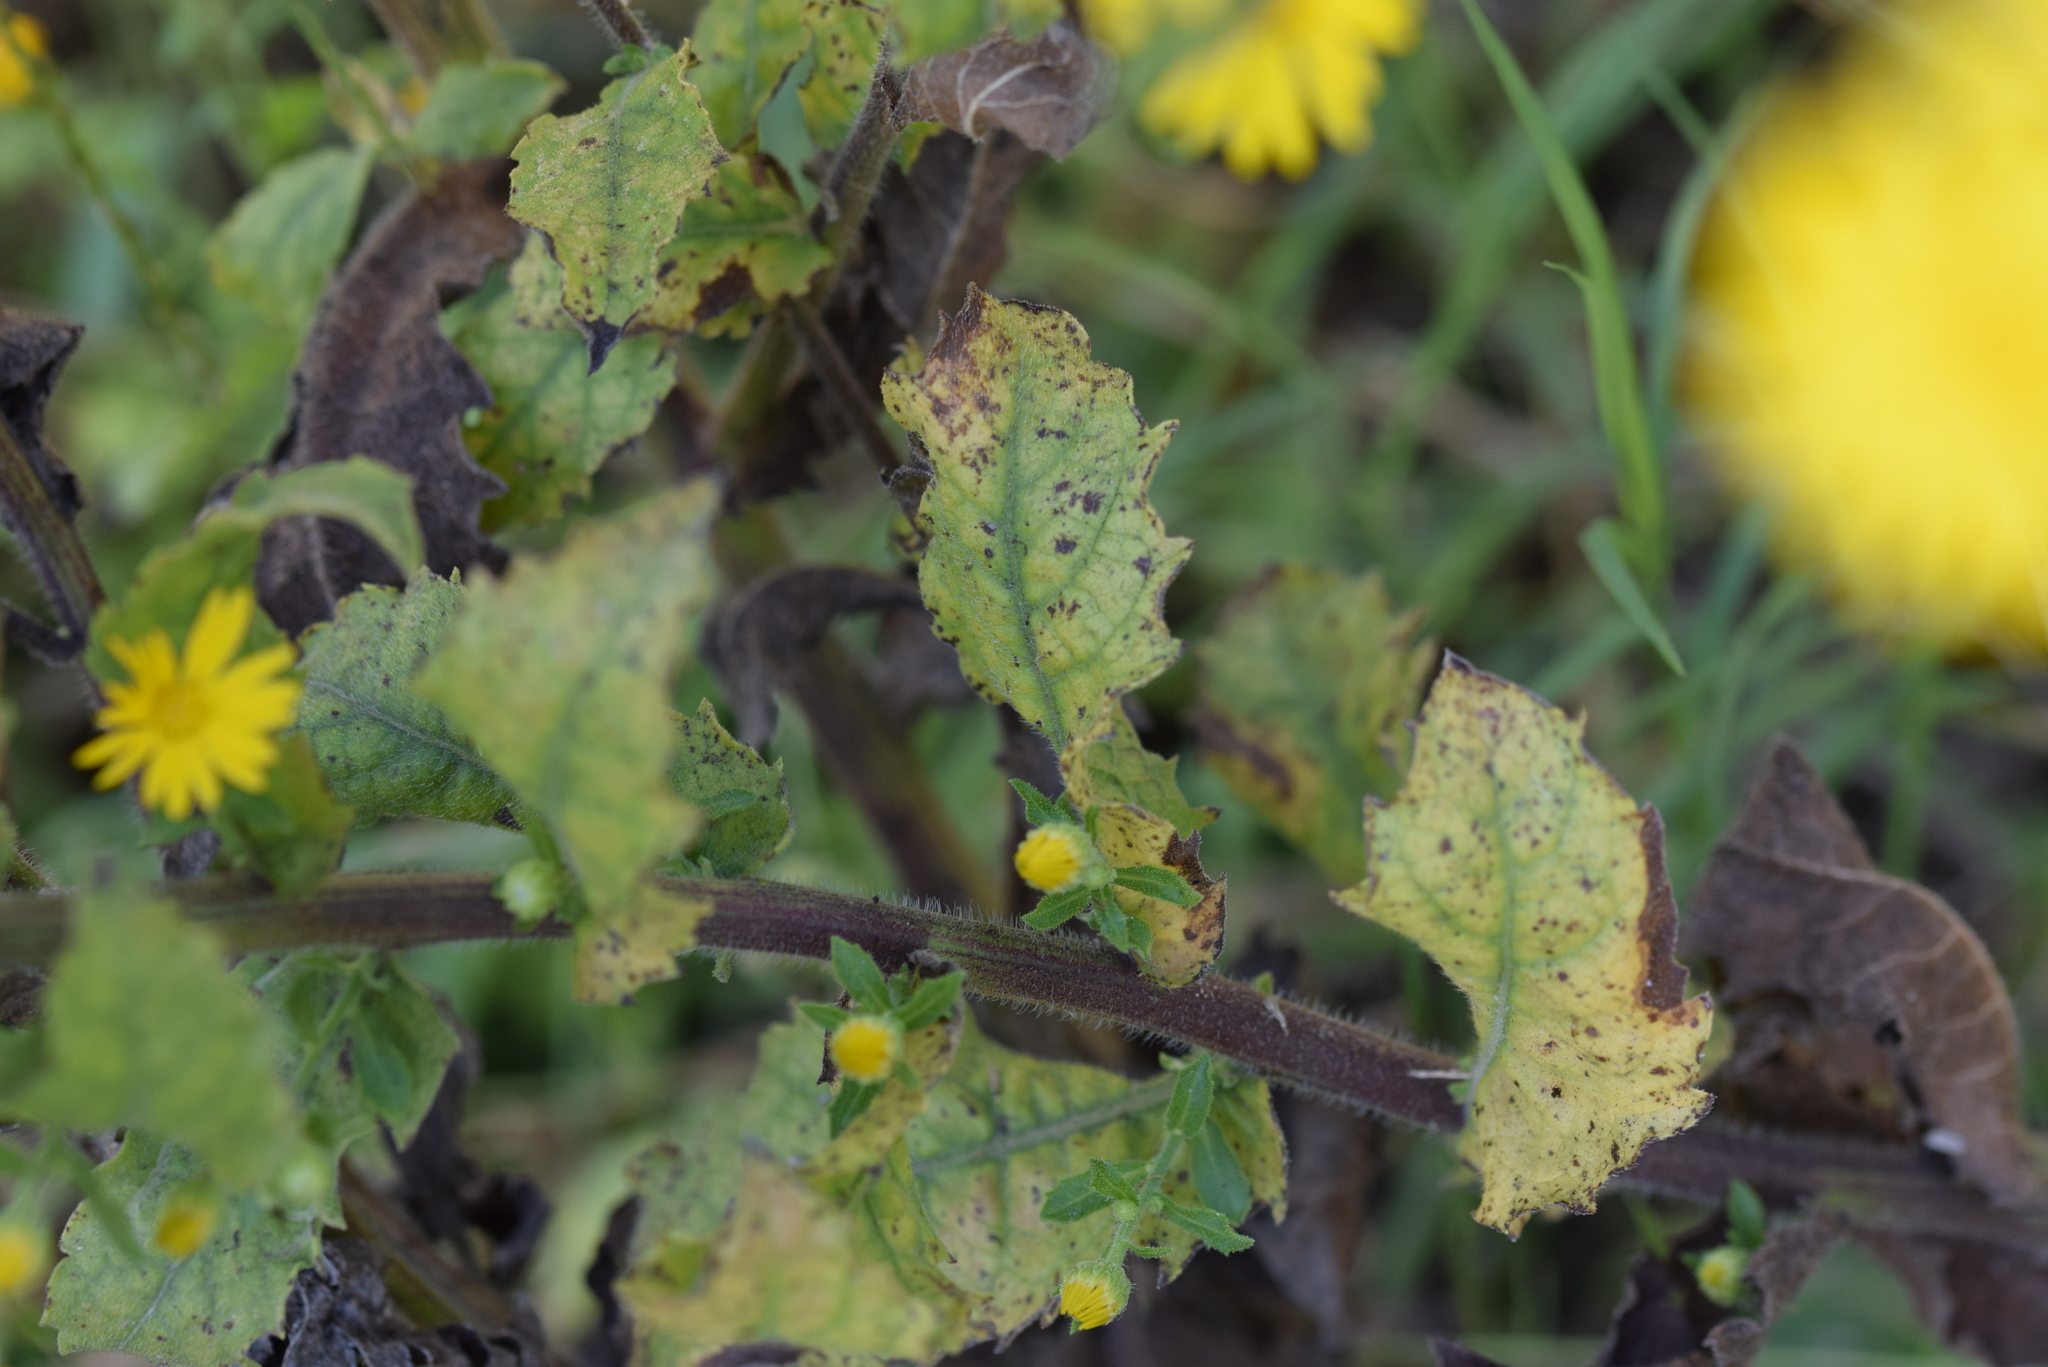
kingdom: Plantae
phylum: Tracheophyta
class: Magnoliopsida
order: Asterales
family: Asteraceae
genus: Heterotheca
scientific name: Heterotheca subaxillaris
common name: Camphorweed
